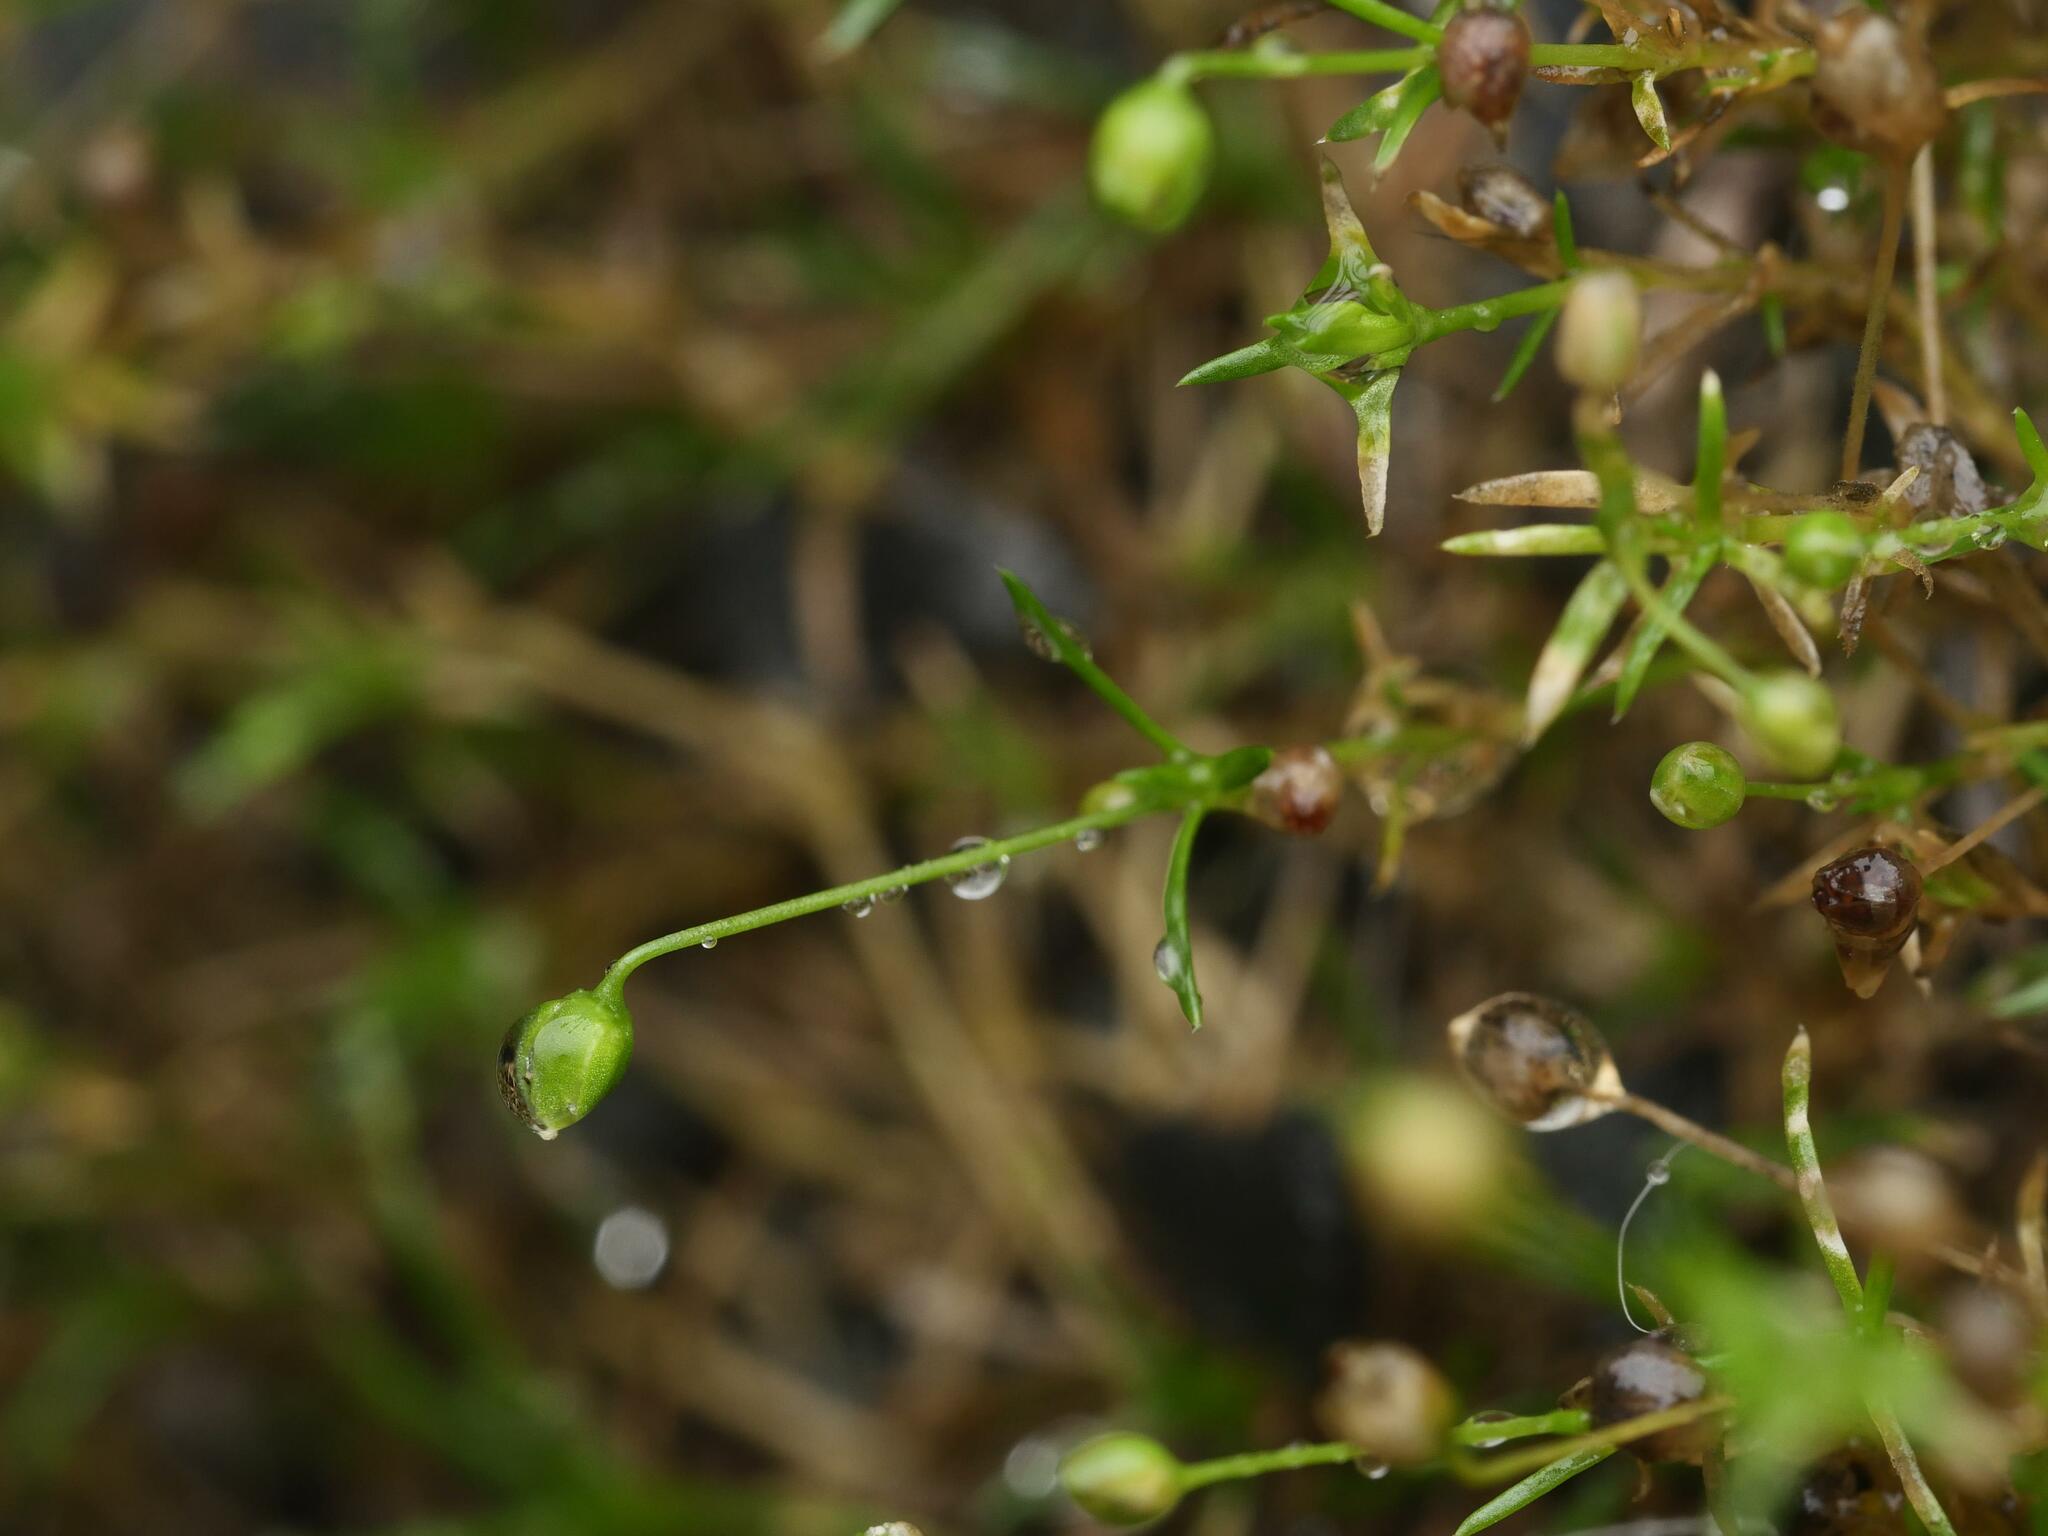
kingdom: Plantae
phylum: Tracheophyta
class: Magnoliopsida
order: Caryophyllales
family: Caryophyllaceae
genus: Sagina
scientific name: Sagina procumbens
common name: Procumbent pearlwort
